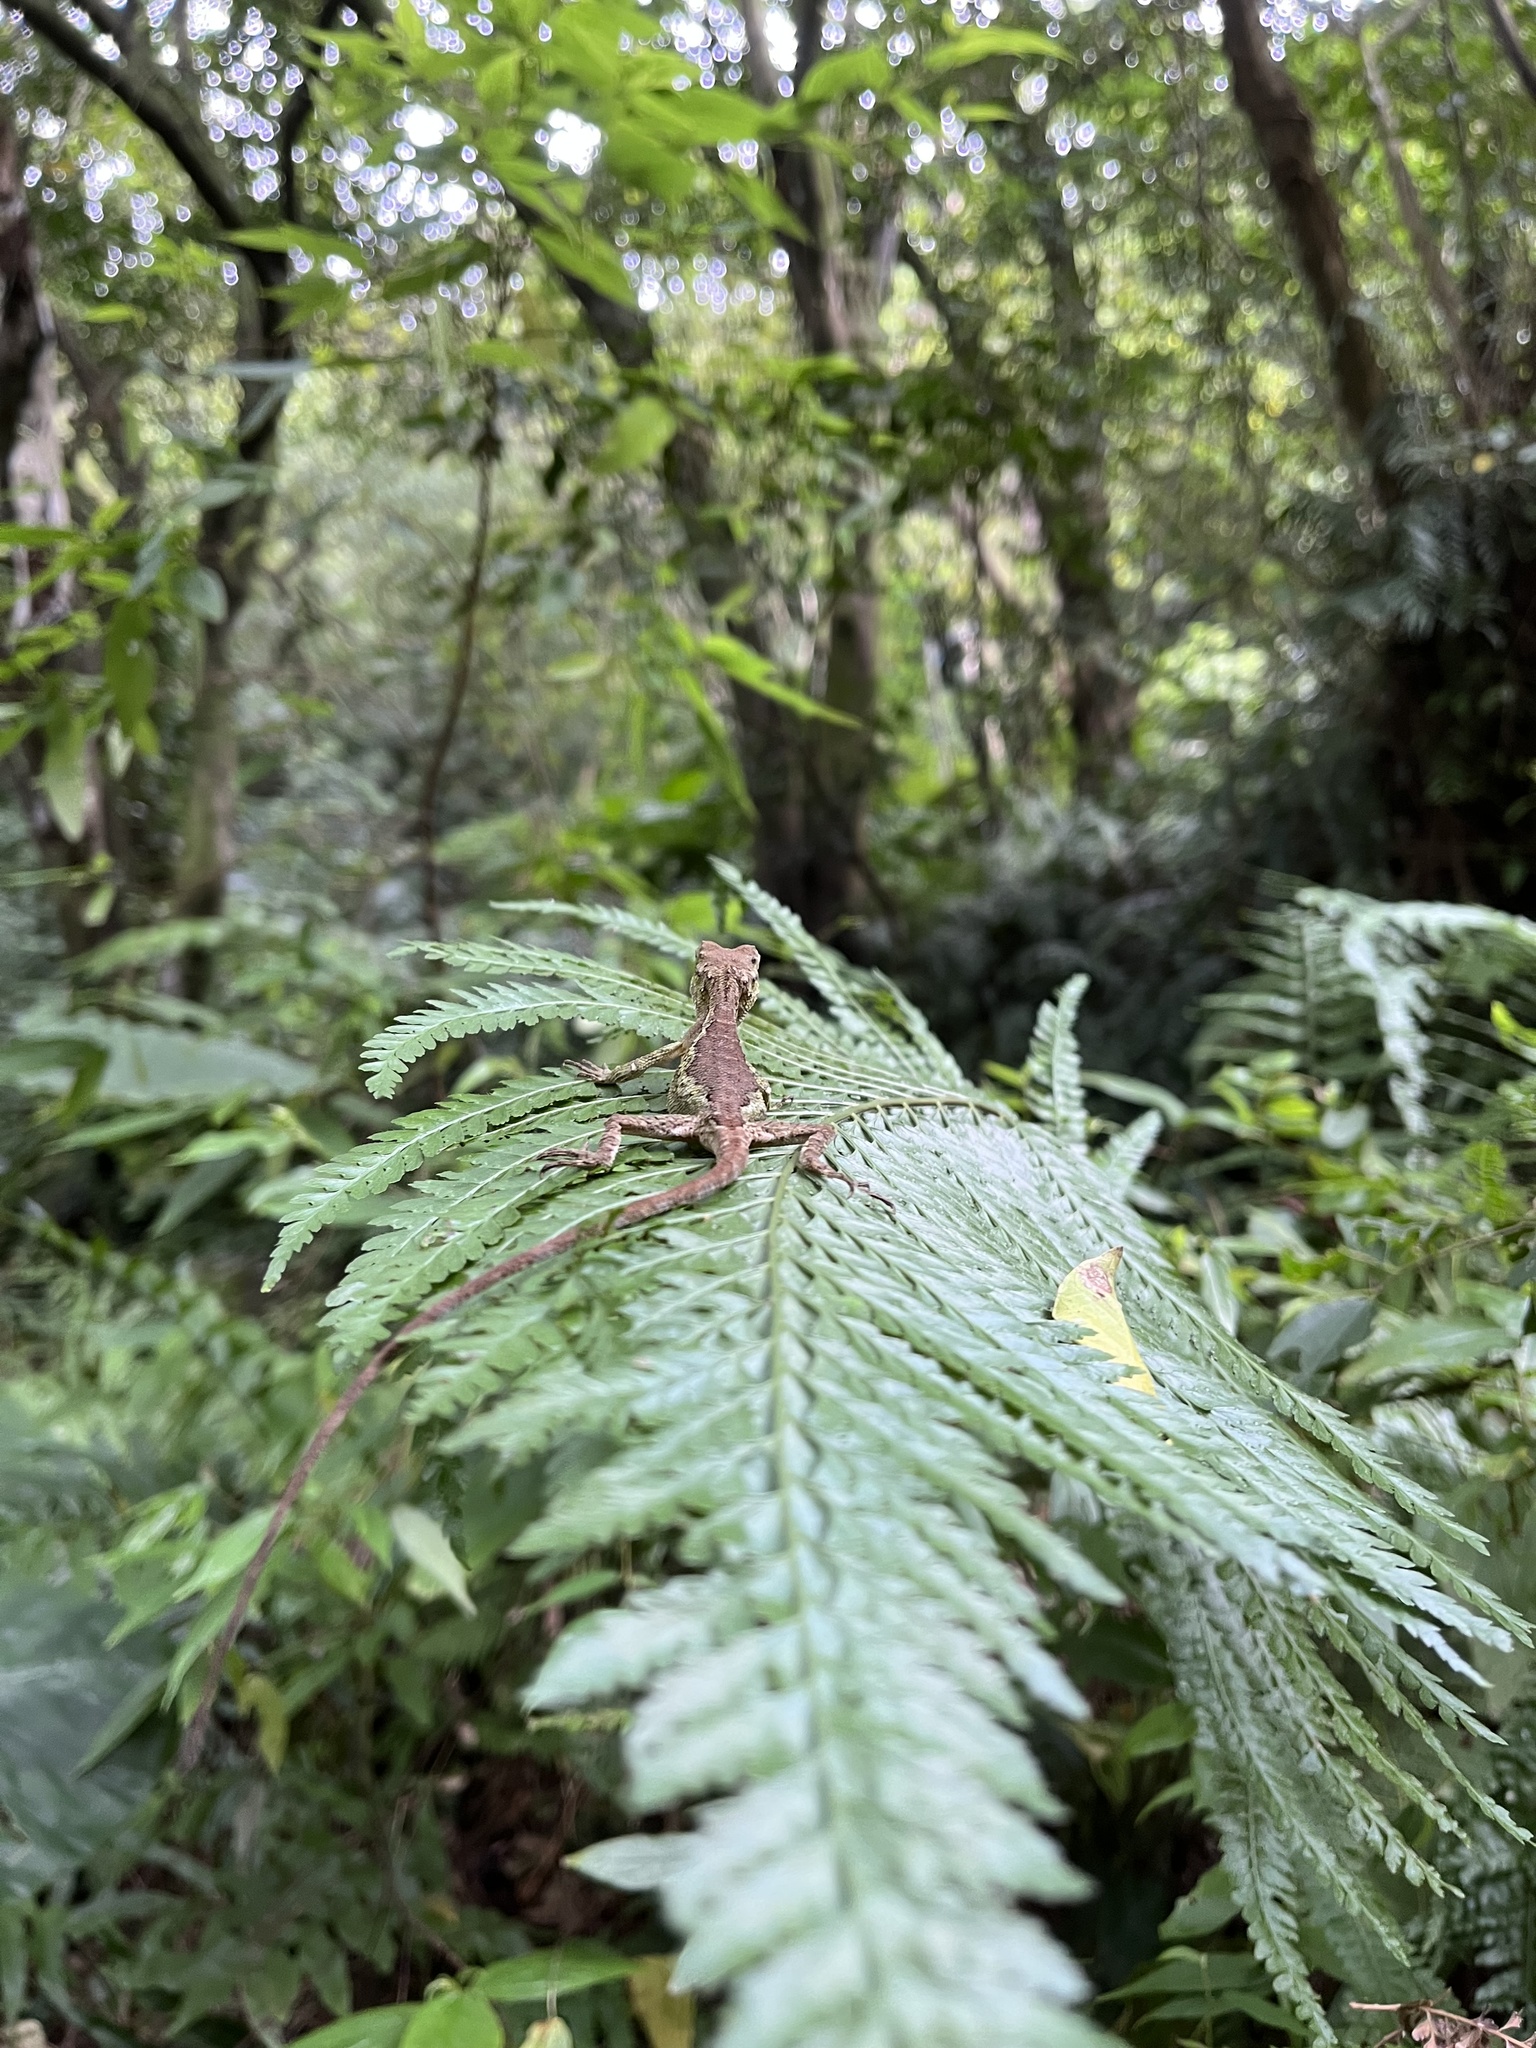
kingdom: Fungi
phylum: Basidiomycota
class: Agaricomycetes
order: Boletales
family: Diplocystidiaceae
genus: Diploderma
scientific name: Diploderma polygonatum
